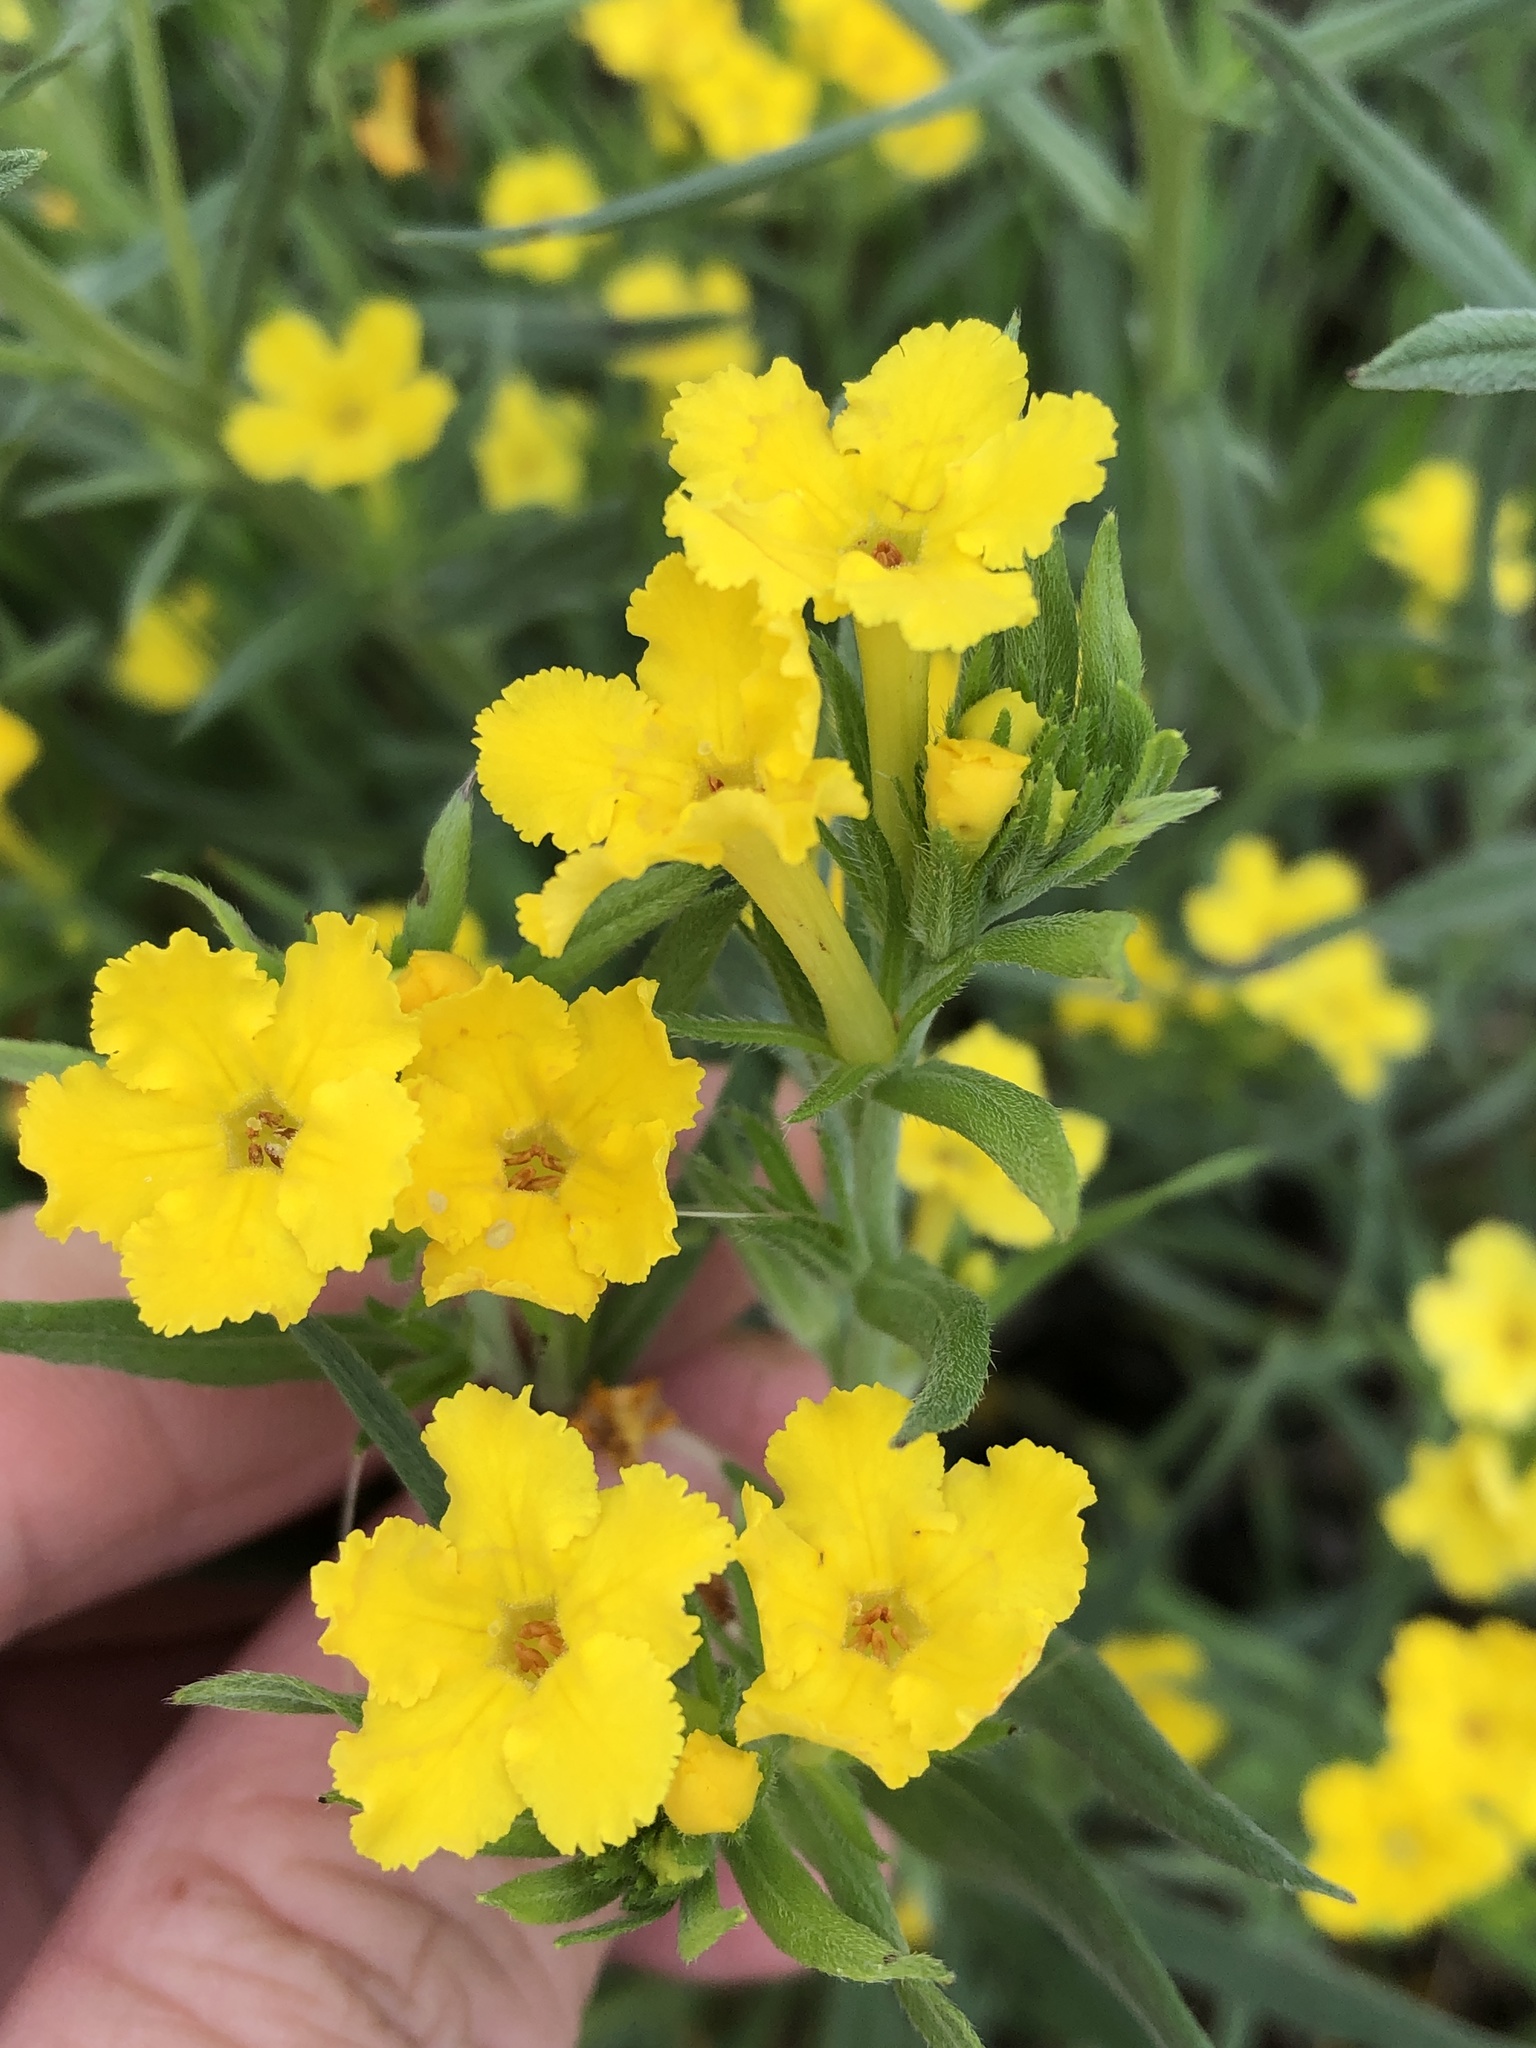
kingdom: Plantae
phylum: Tracheophyta
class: Magnoliopsida
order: Boraginales
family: Boraginaceae
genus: Lithospermum
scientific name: Lithospermum incisum
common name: Fringed gromwell
